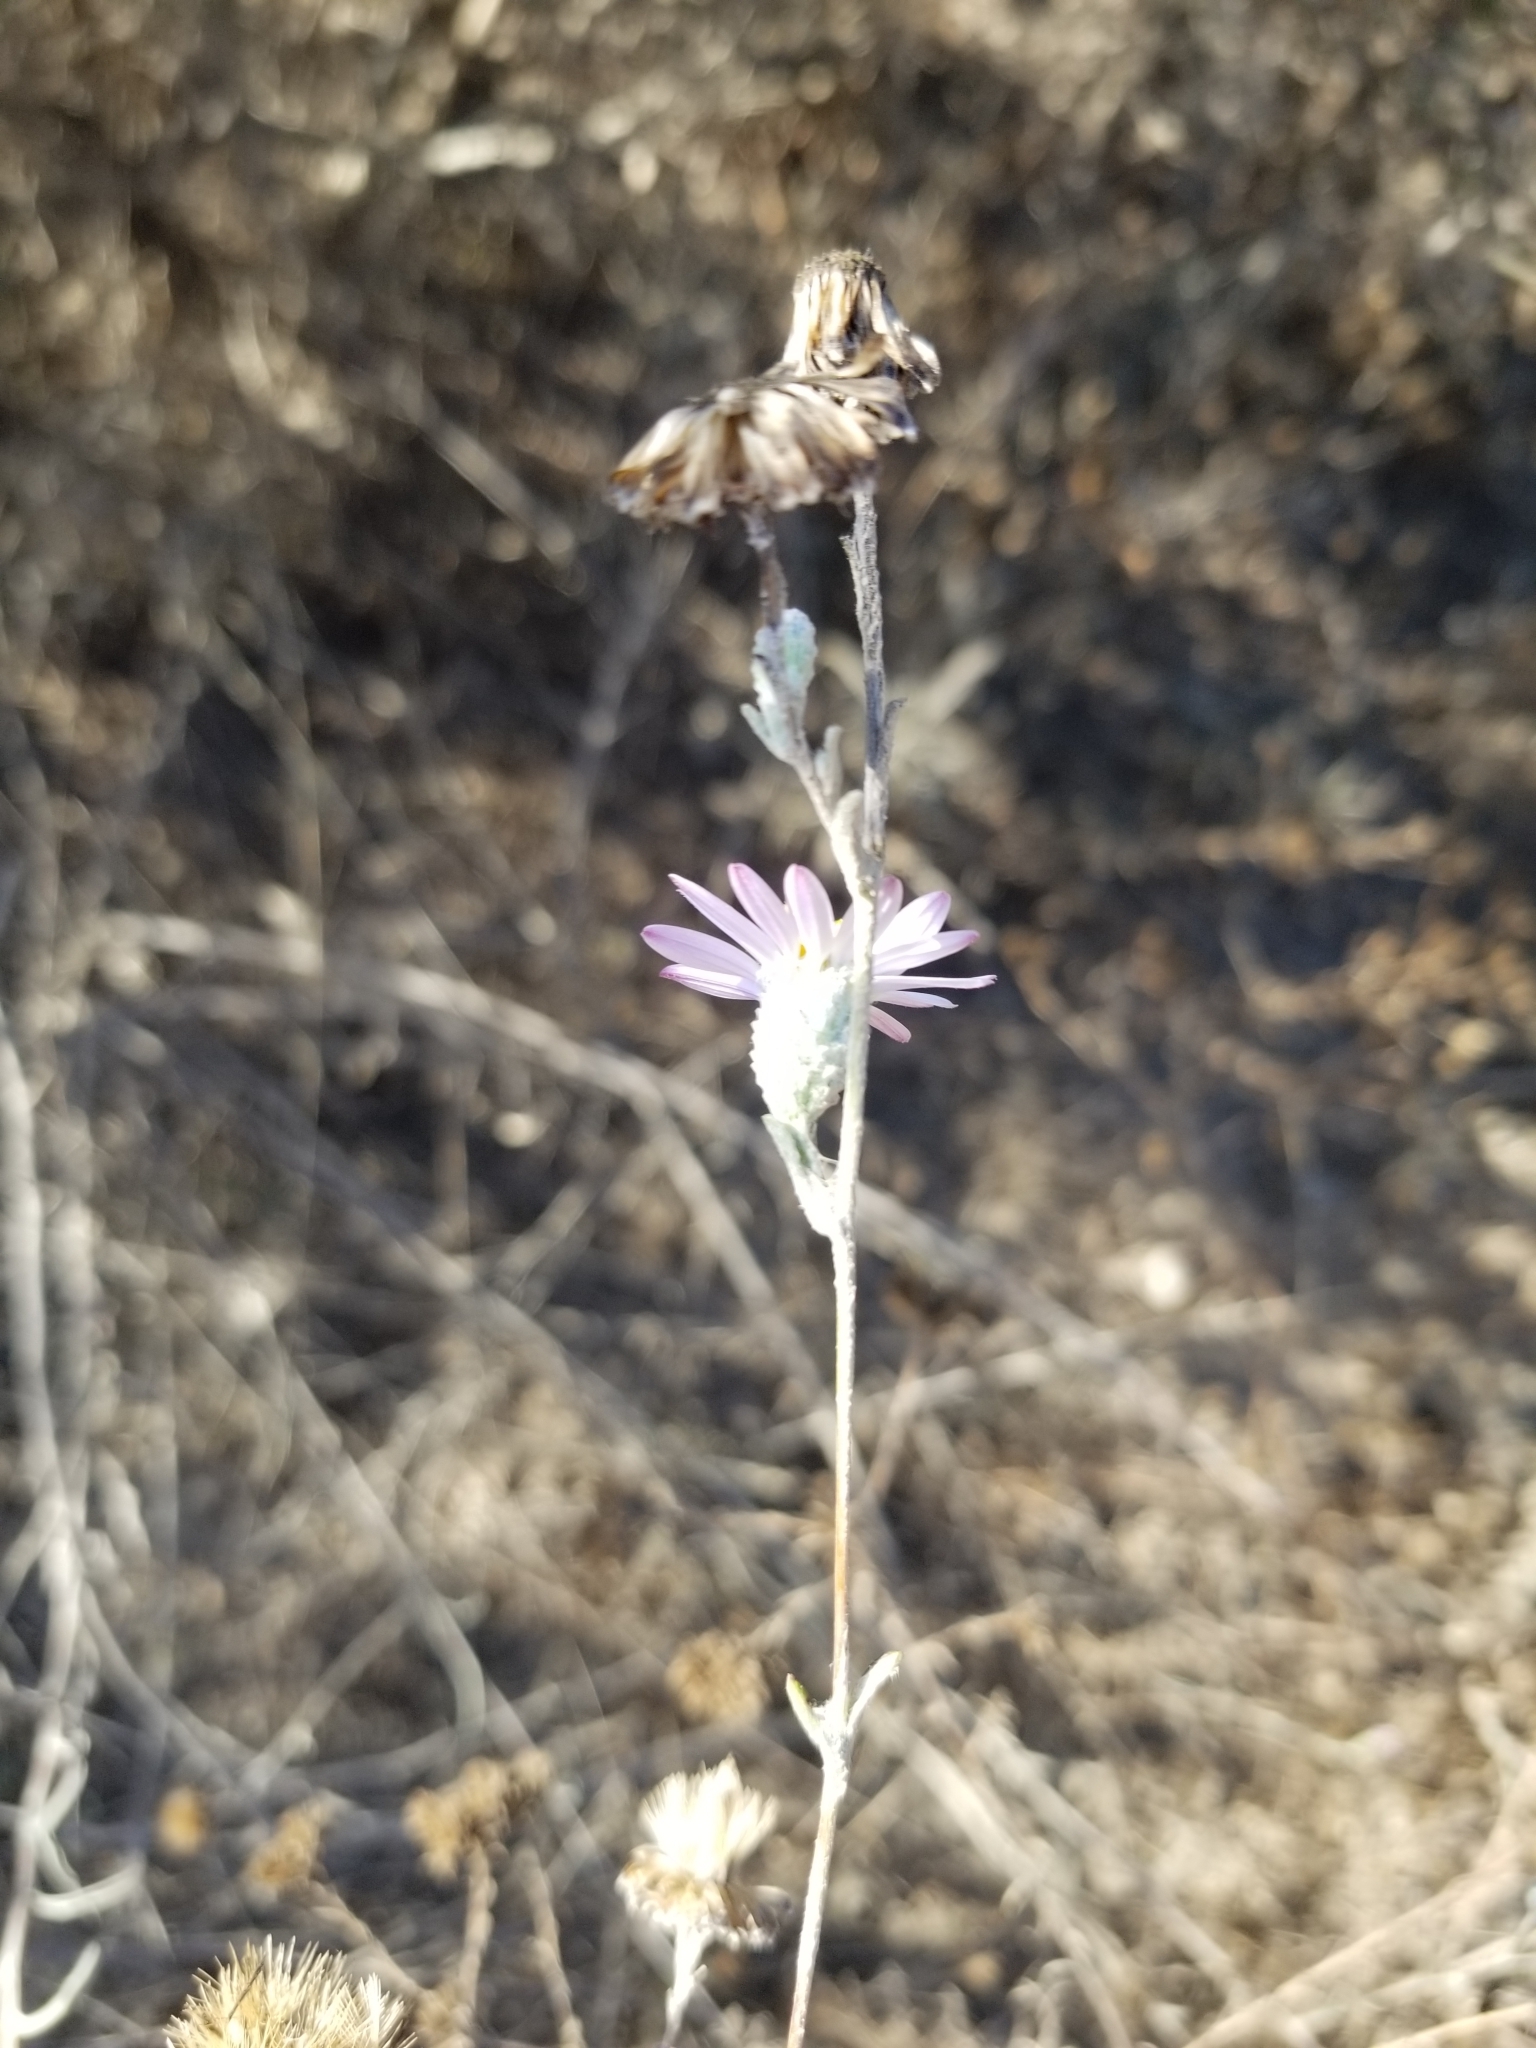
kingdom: Plantae
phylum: Tracheophyta
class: Magnoliopsida
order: Asterales
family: Asteraceae
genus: Corethrogyne
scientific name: Corethrogyne filaginifolia
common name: Sand-aster
